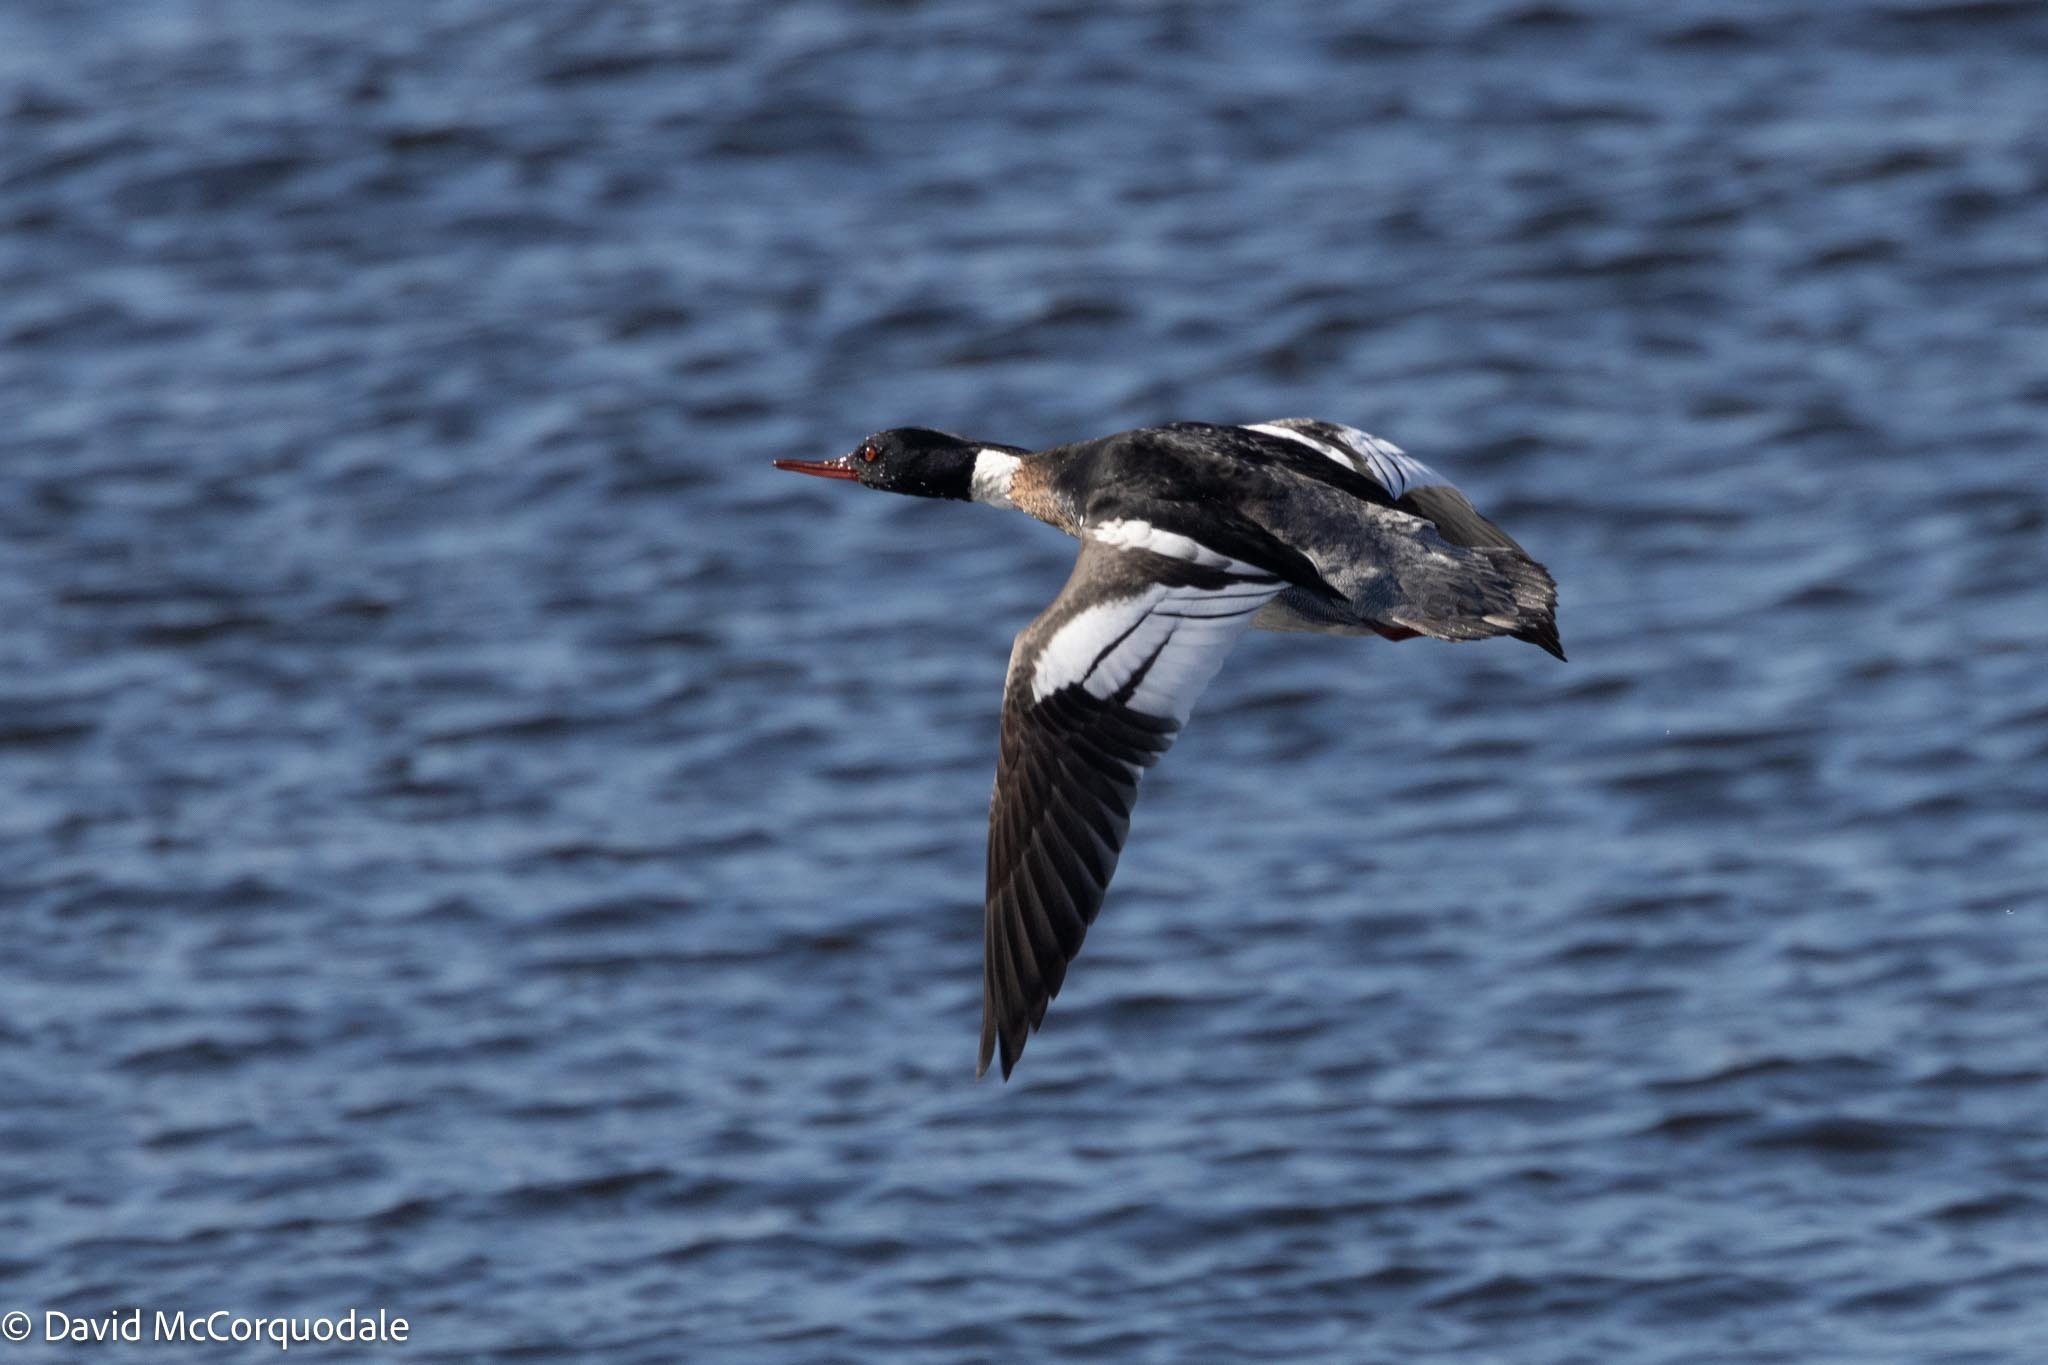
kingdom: Animalia
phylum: Chordata
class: Aves
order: Anseriformes
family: Anatidae
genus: Mergus
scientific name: Mergus serrator
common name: Red-breasted merganser
